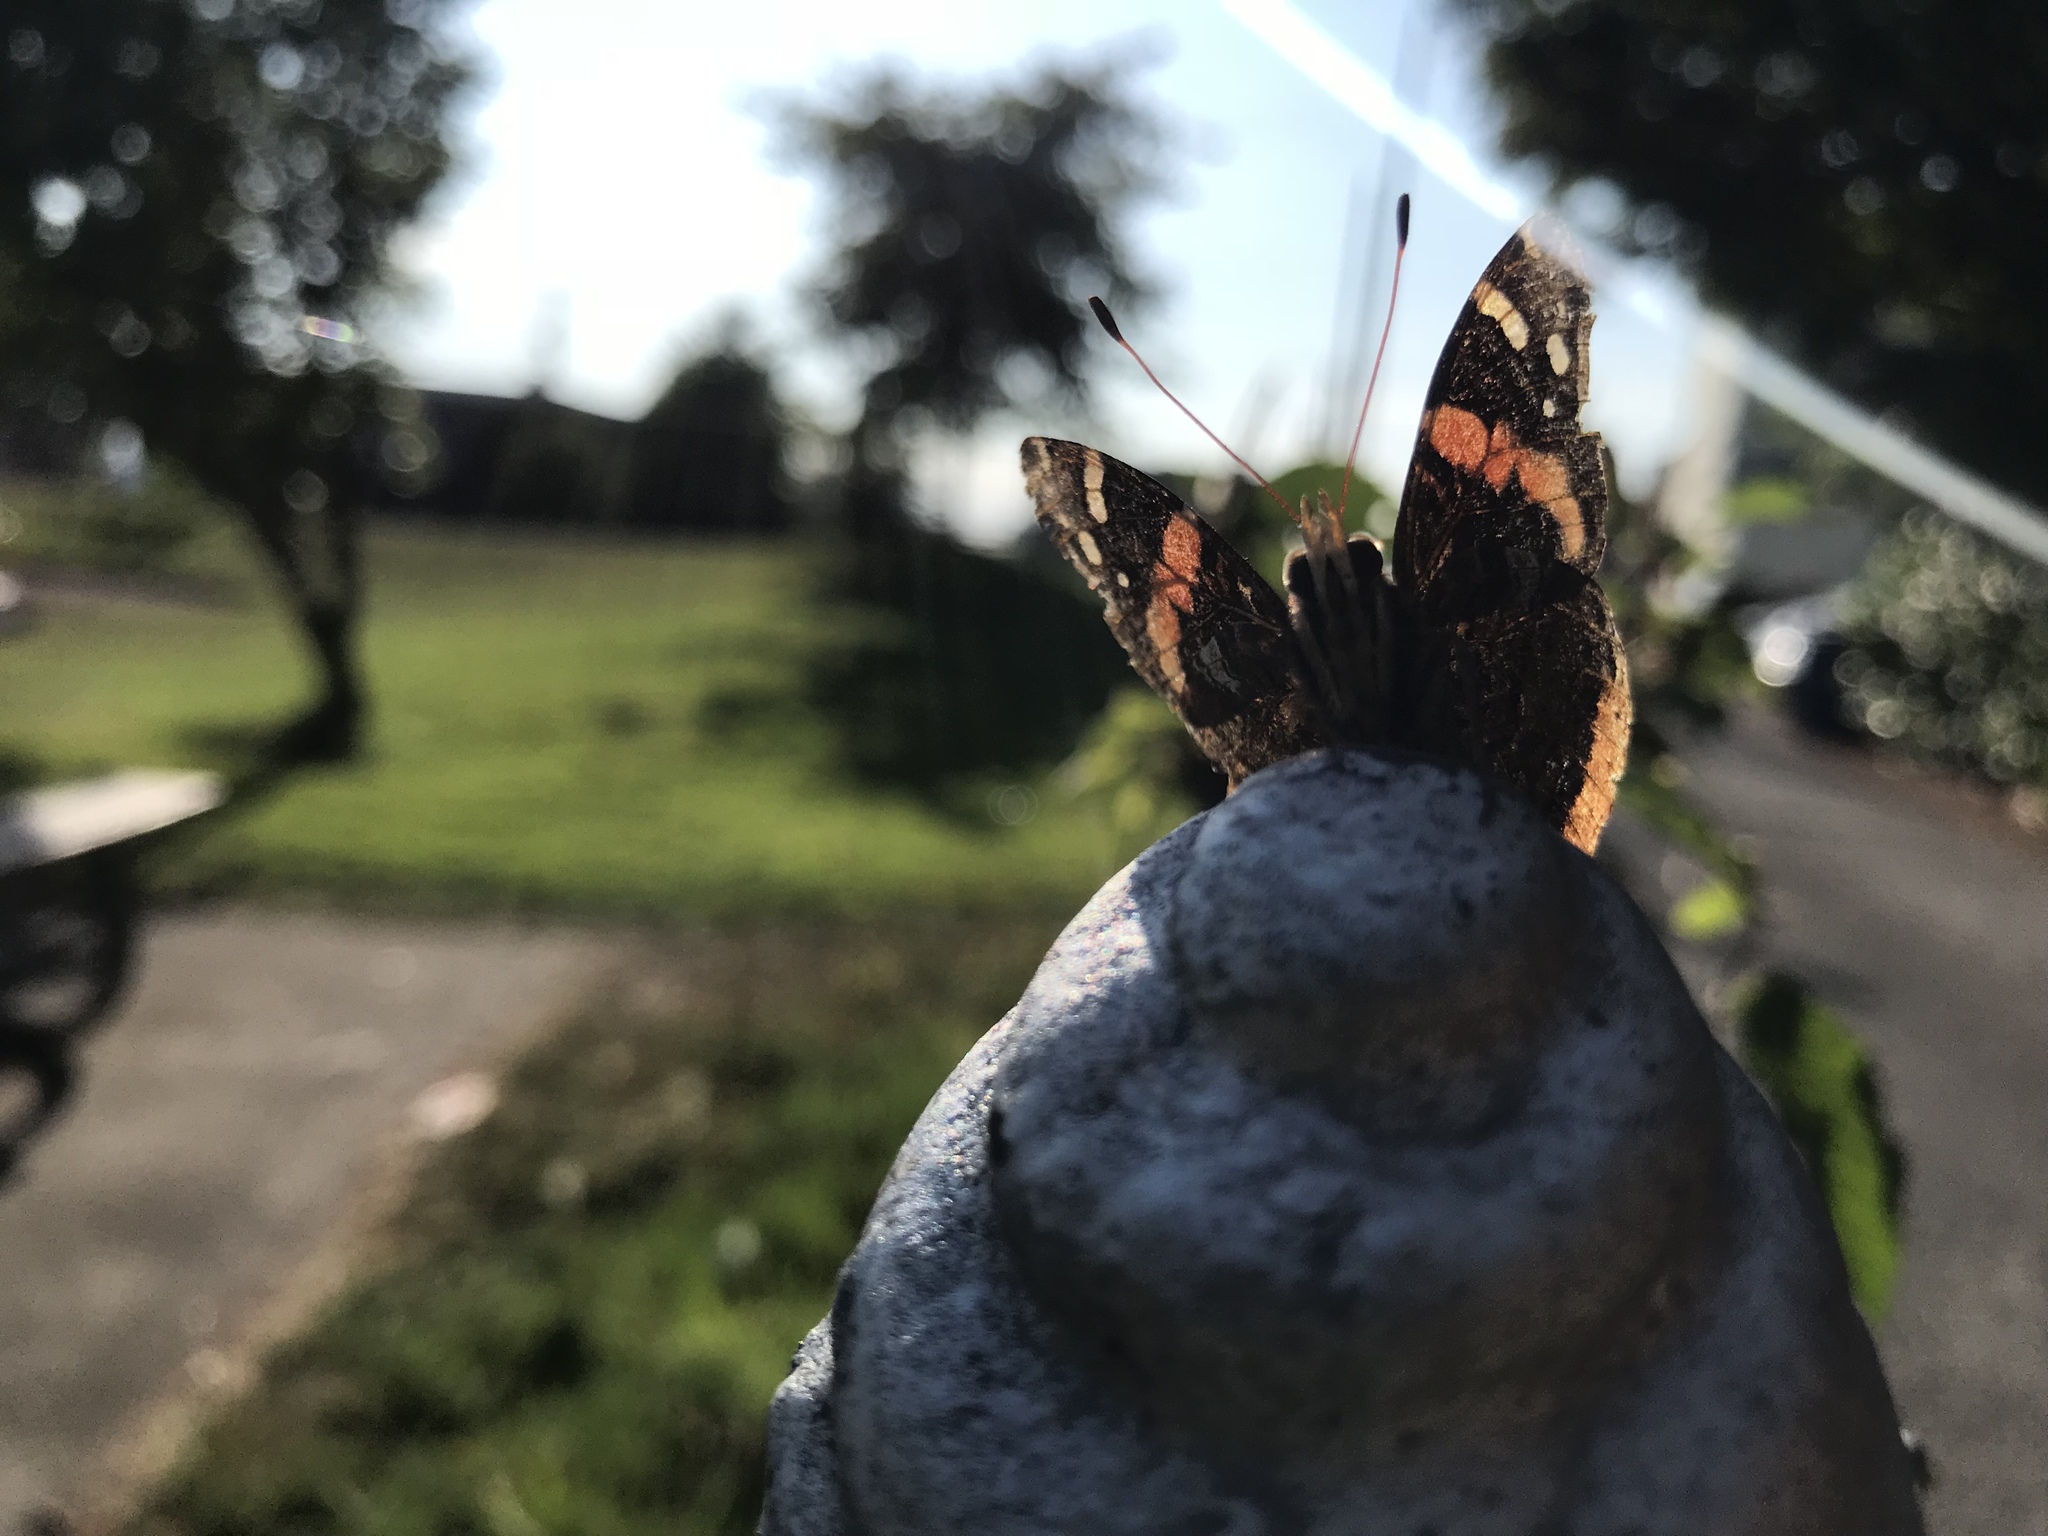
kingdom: Animalia
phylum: Arthropoda
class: Insecta
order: Lepidoptera
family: Nymphalidae
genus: Vanessa
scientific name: Vanessa atalanta
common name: Red admiral
